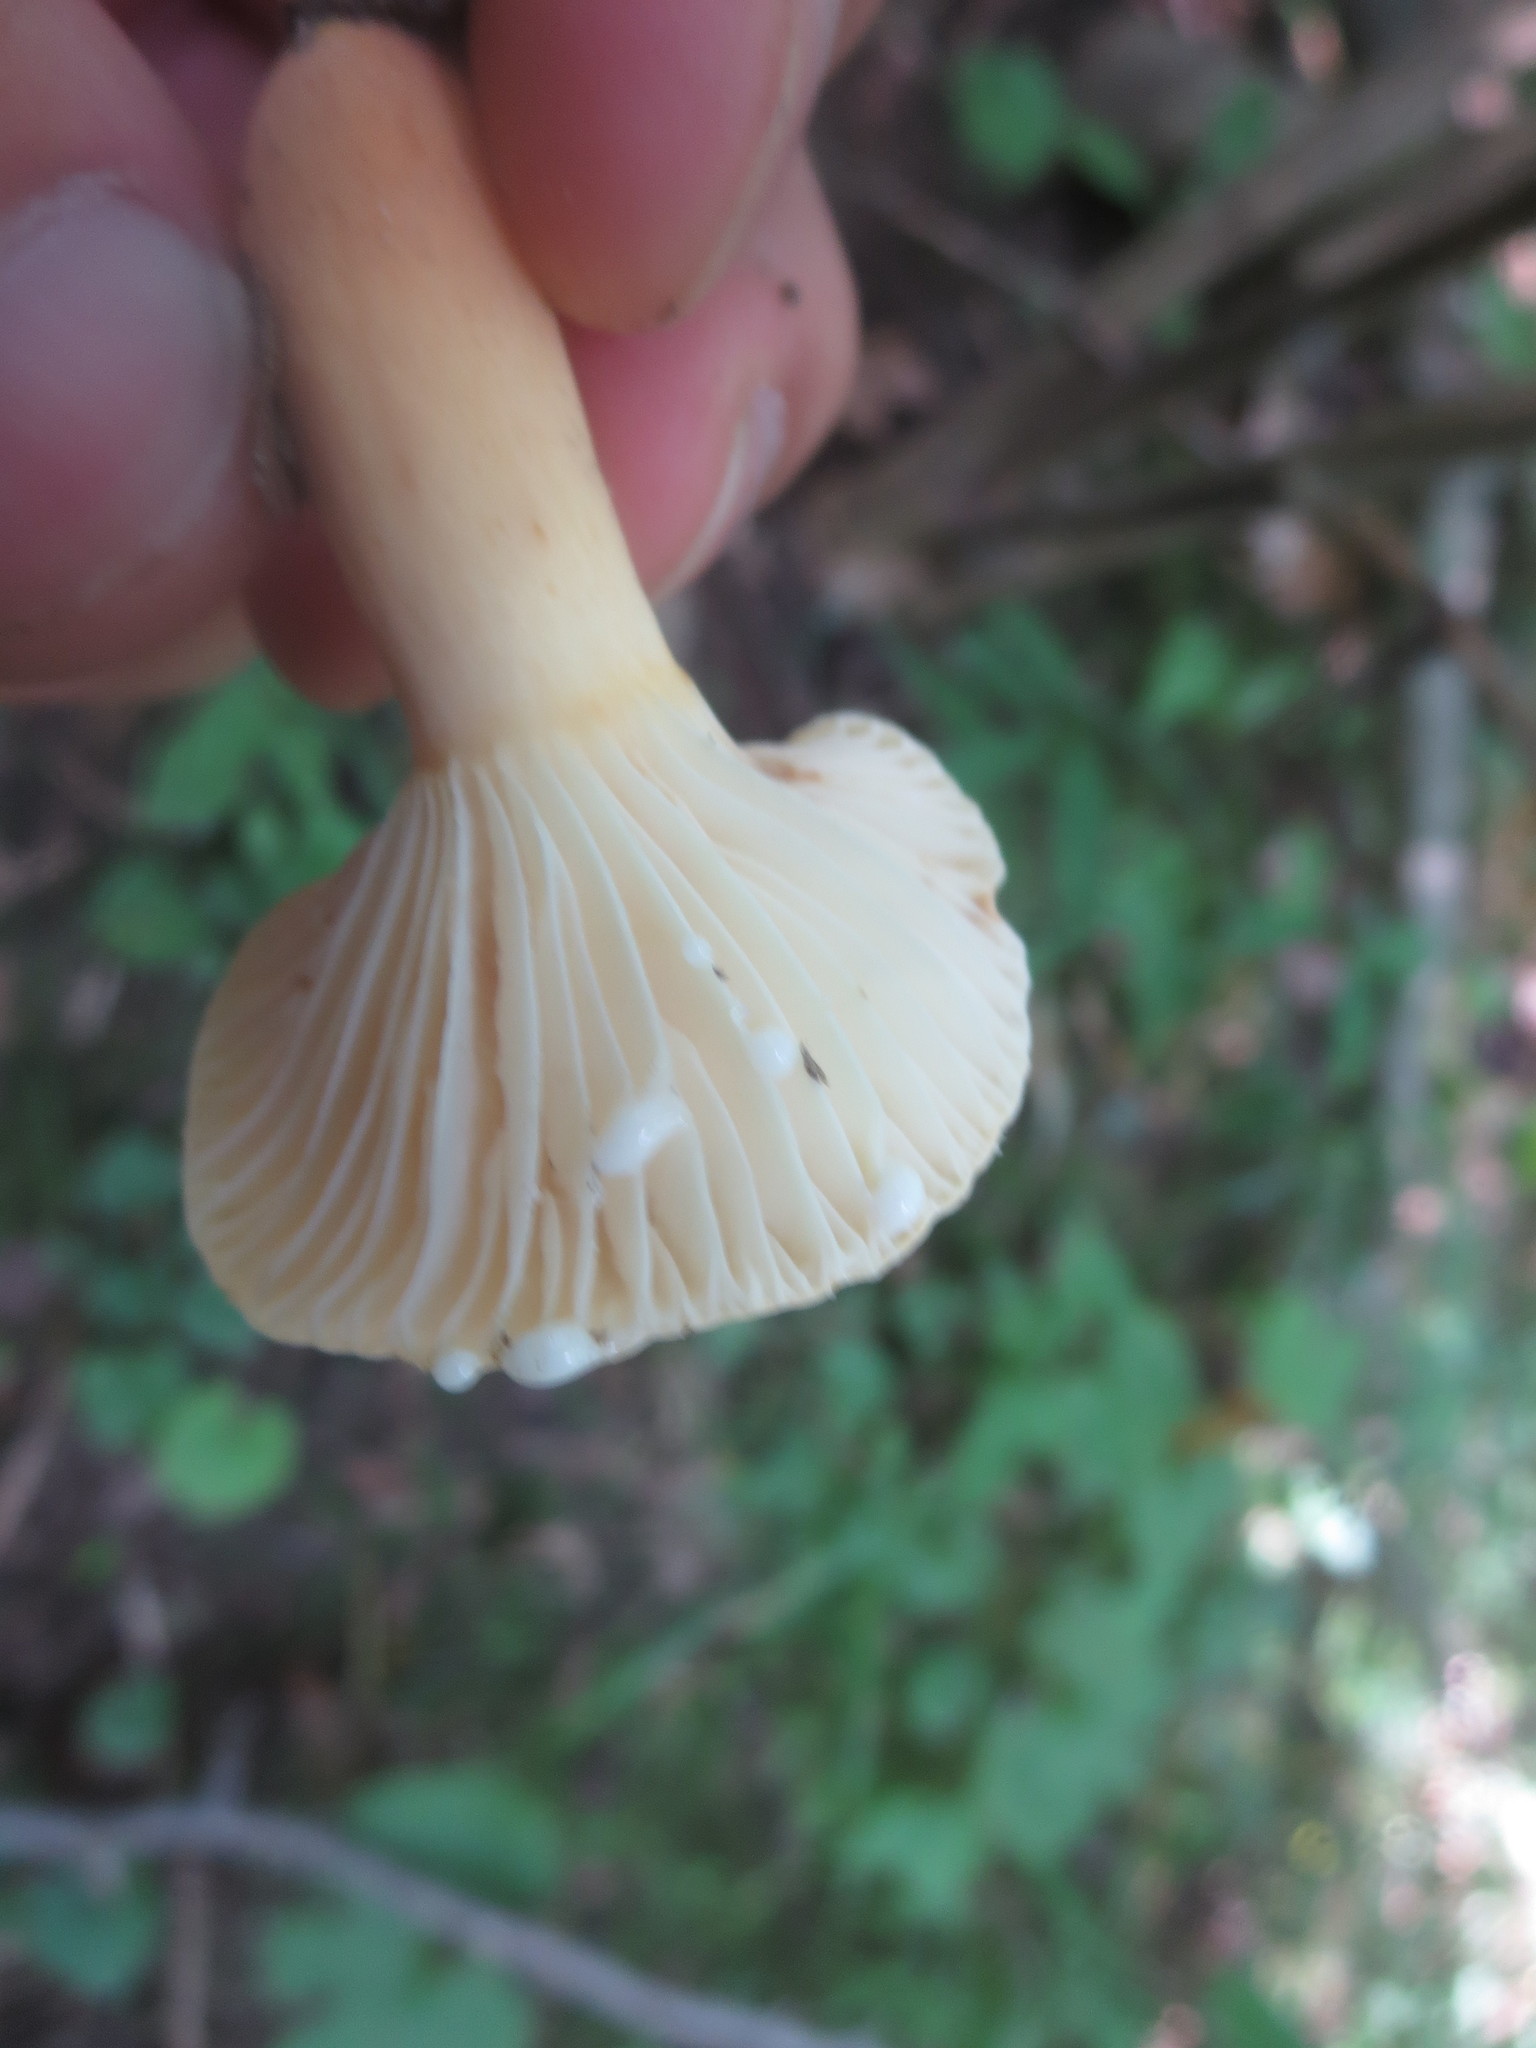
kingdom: Fungi
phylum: Basidiomycota
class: Agaricomycetes
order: Russulales
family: Russulaceae
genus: Lactarius
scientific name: Lactarius hygrophoroides
